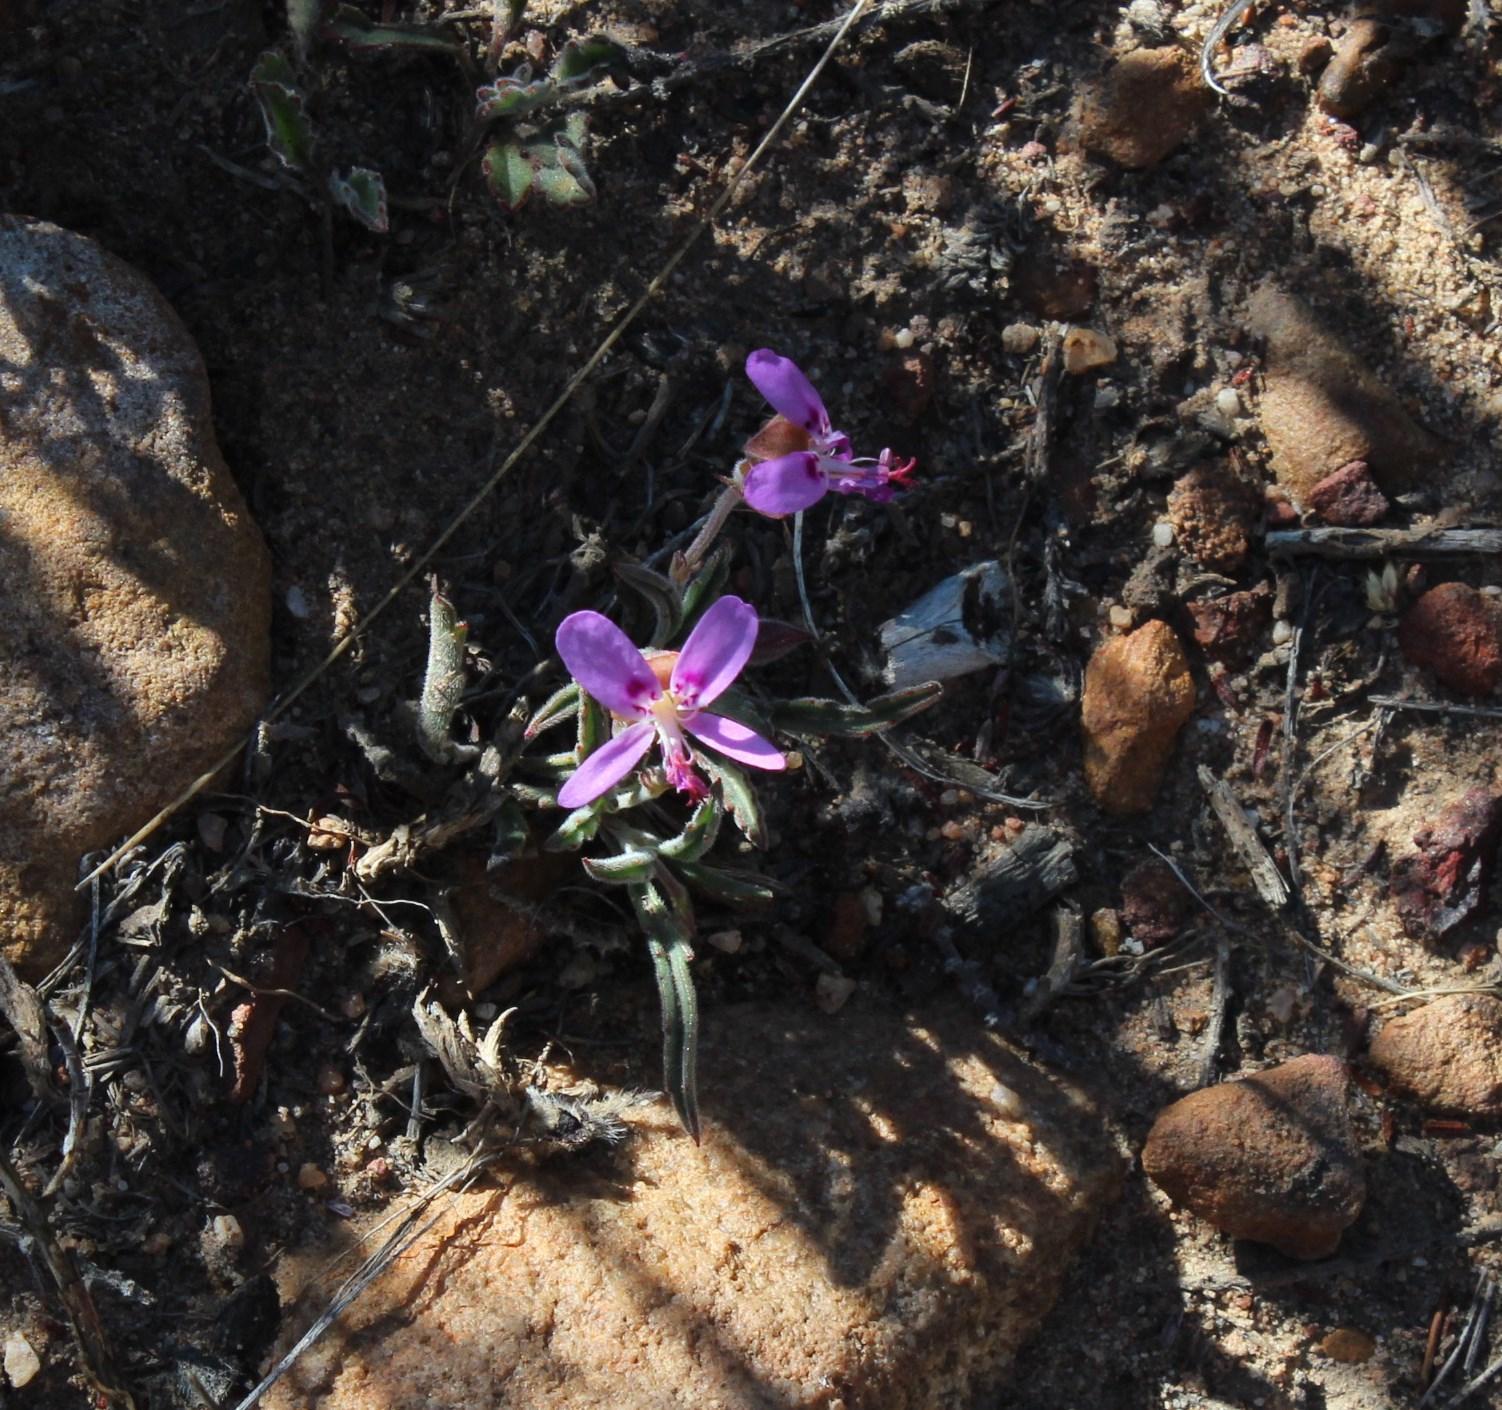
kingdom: Plantae
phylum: Tracheophyta
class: Magnoliopsida
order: Geraniales
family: Geraniaceae
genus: Pelargonium
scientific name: Pelargonium coronopifolium
